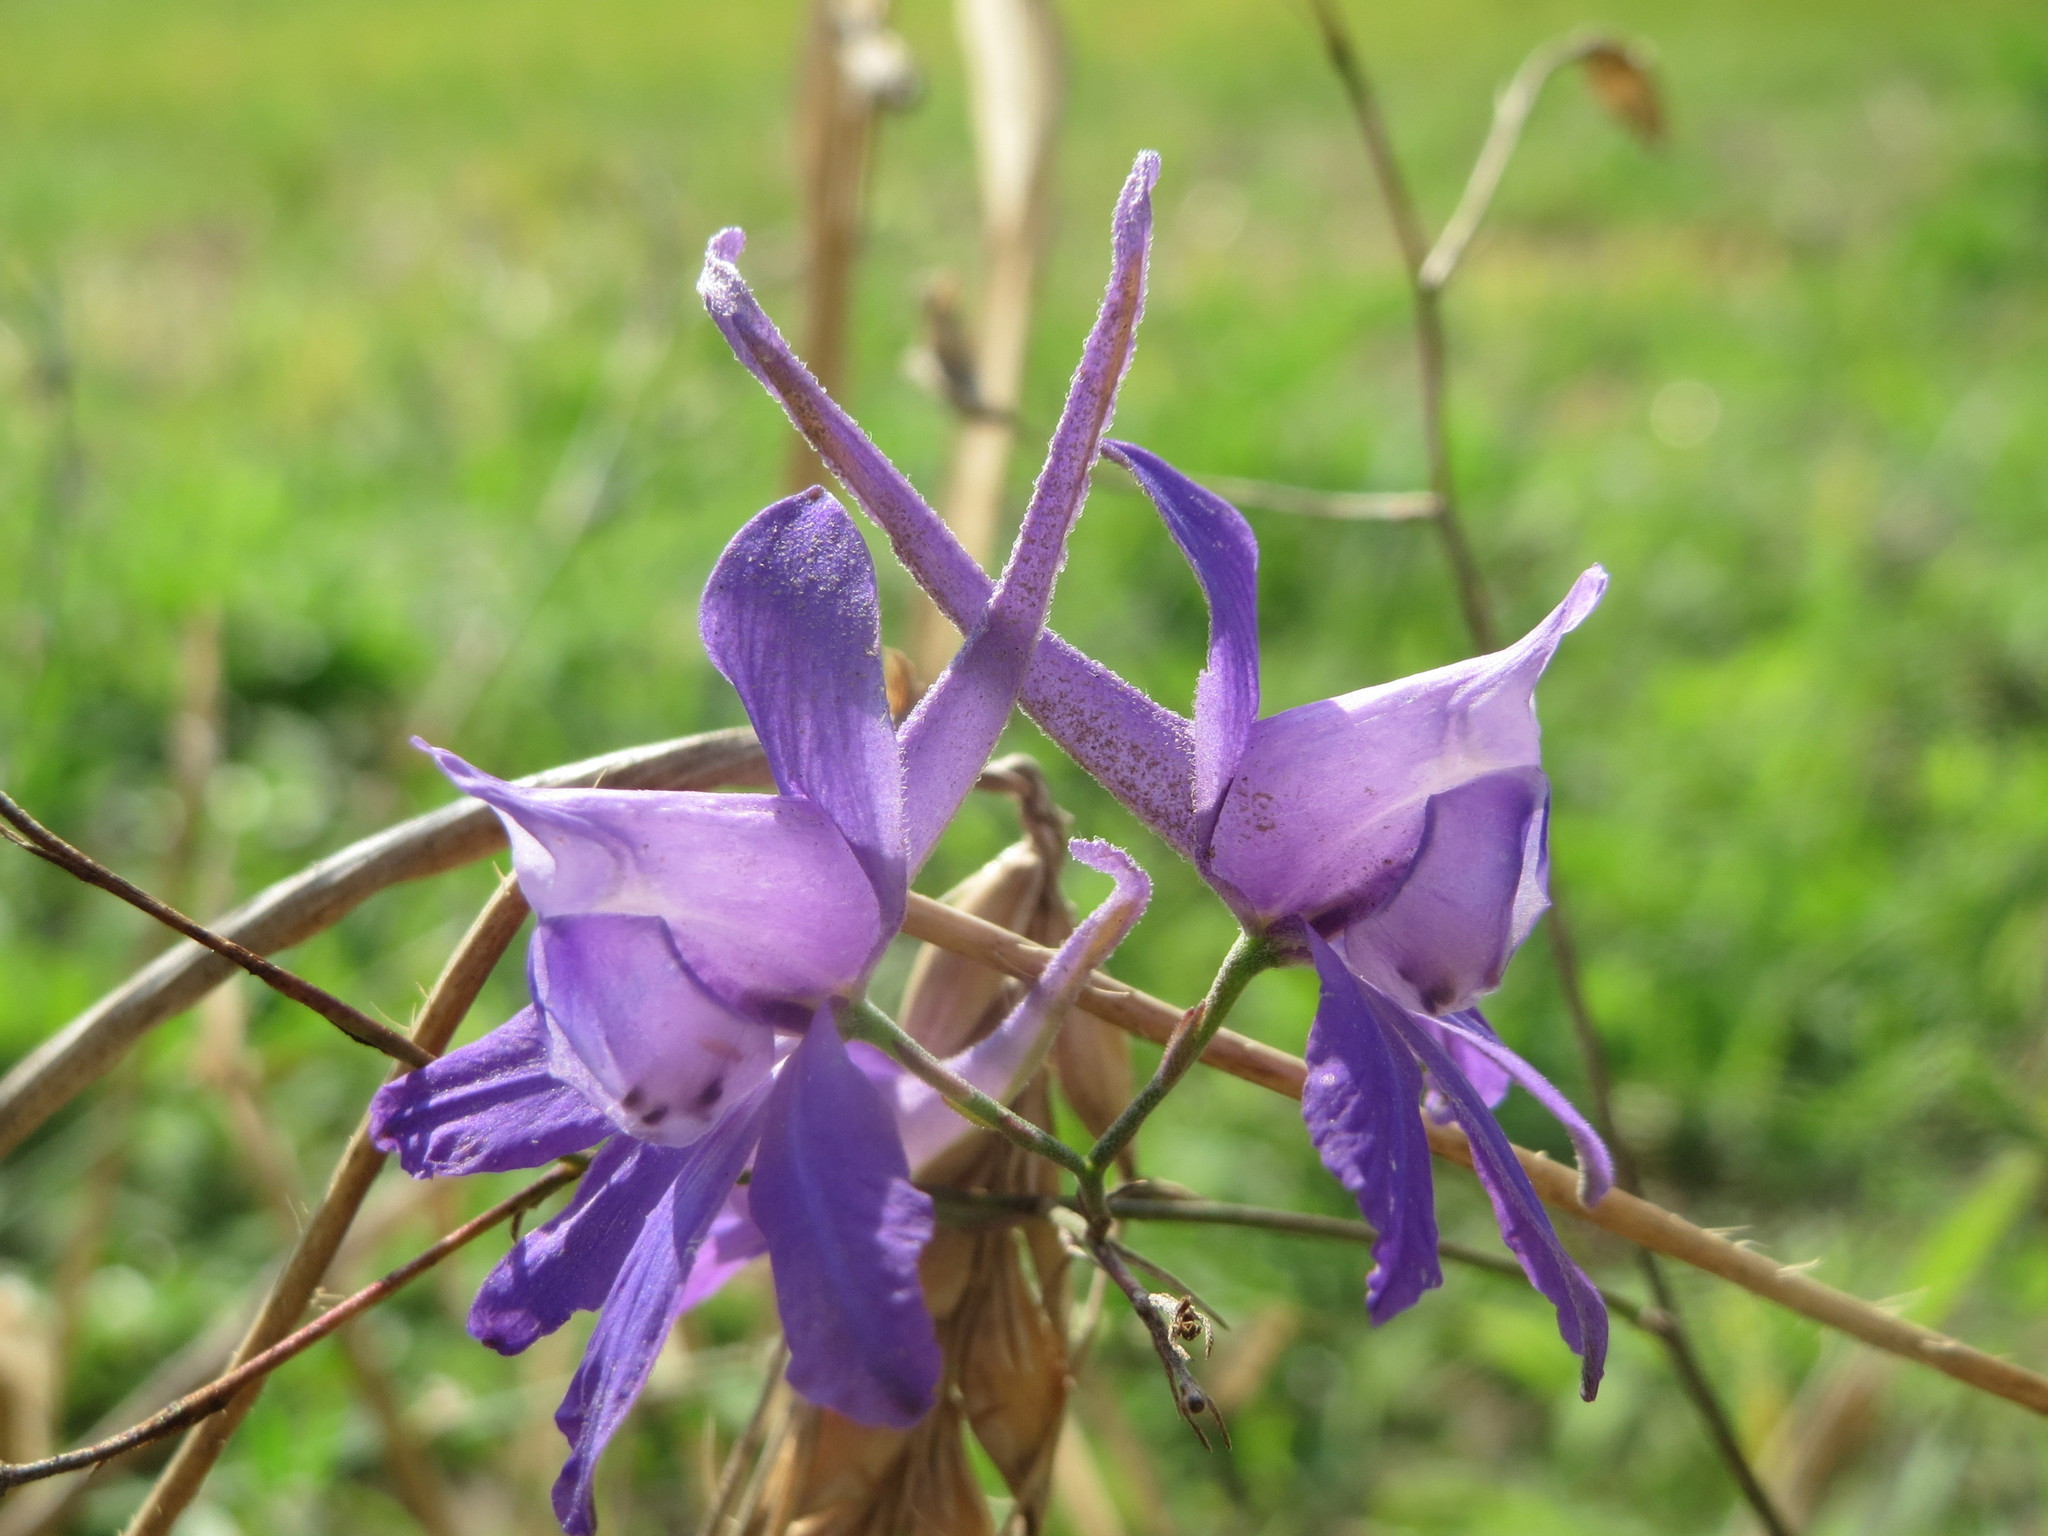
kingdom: Plantae
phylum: Tracheophyta
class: Magnoliopsida
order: Ranunculales
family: Ranunculaceae
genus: Delphinium
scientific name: Delphinium consolida
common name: Branching larkspur
